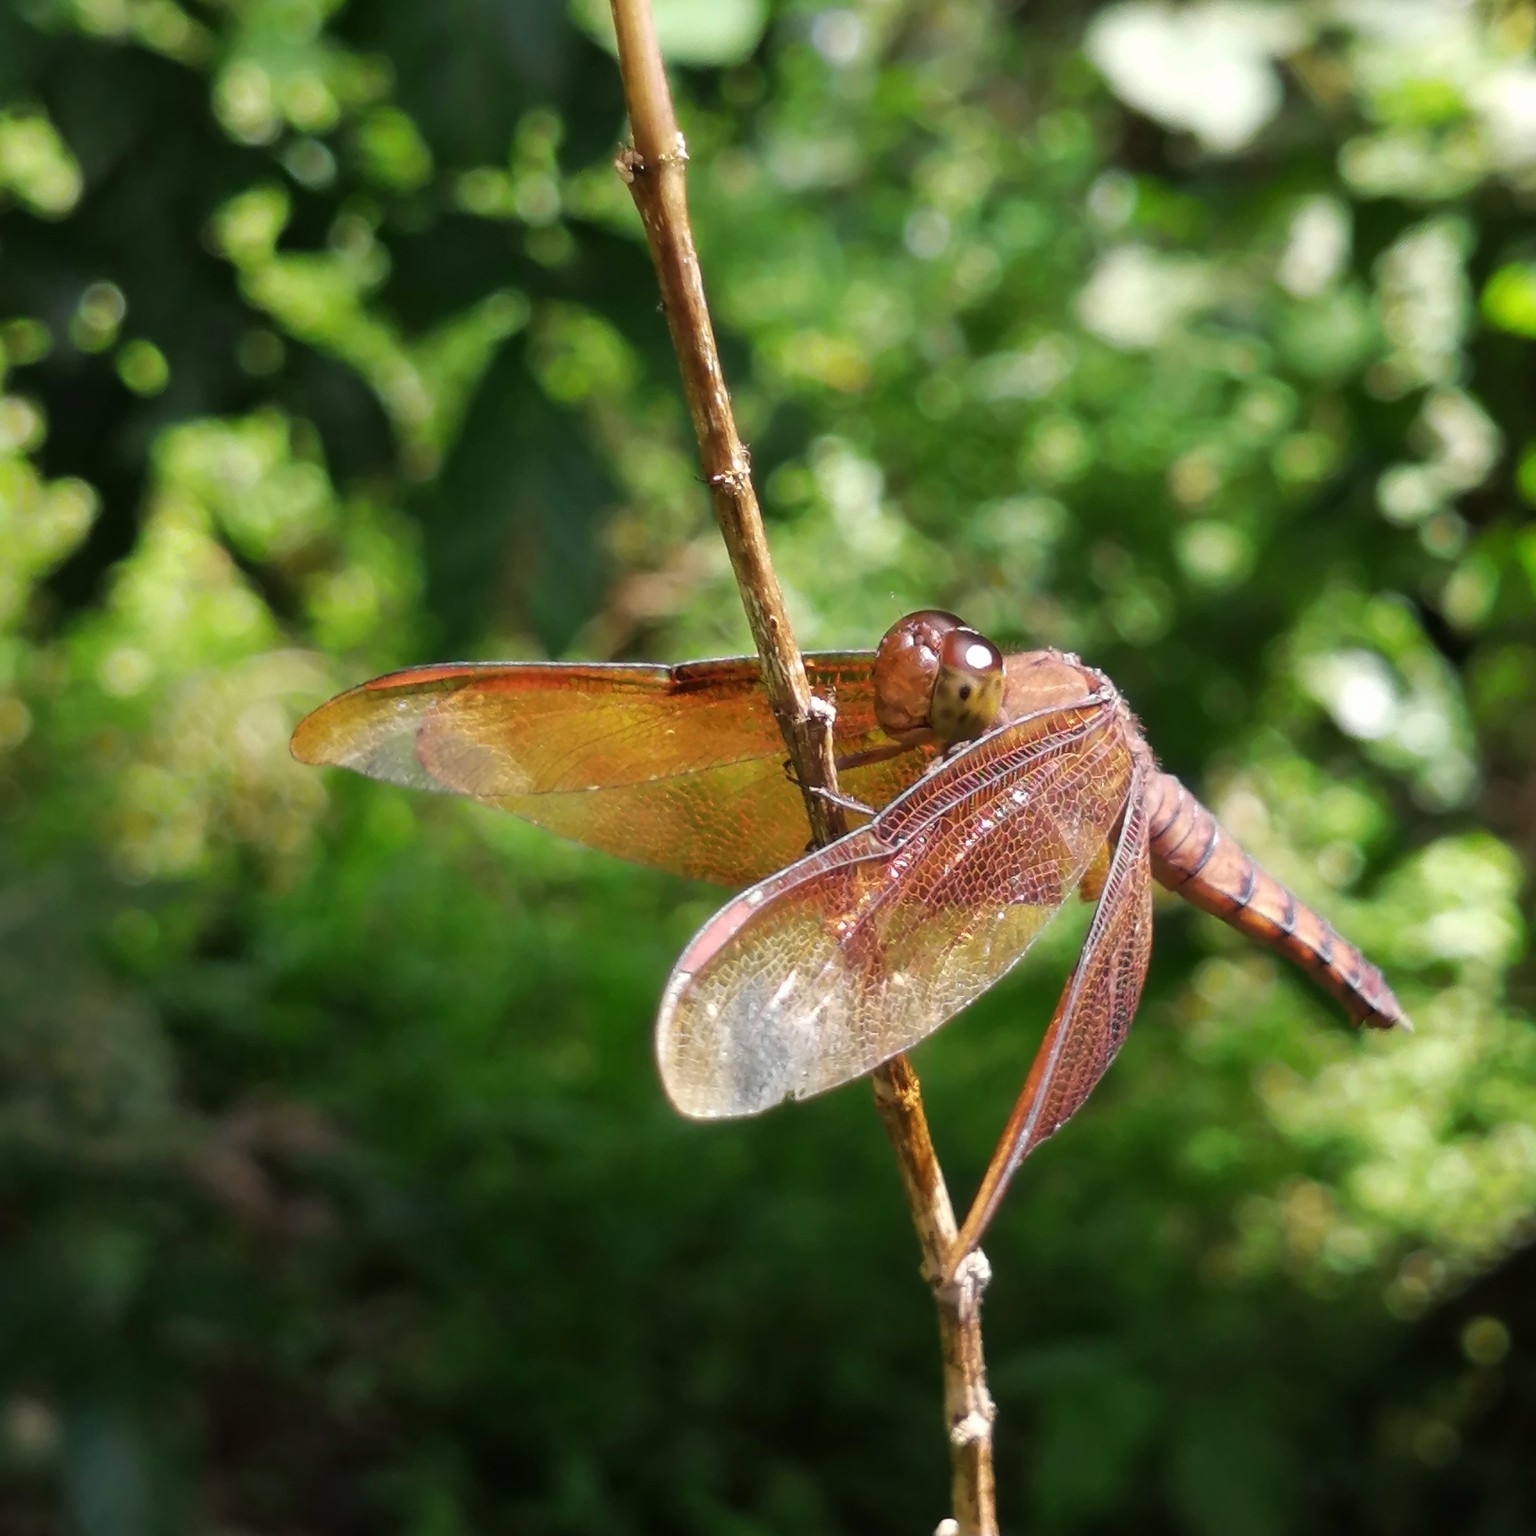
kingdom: Animalia
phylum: Arthropoda
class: Insecta
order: Odonata
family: Libellulidae
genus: Neurothemis
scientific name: Neurothemis fulvia
